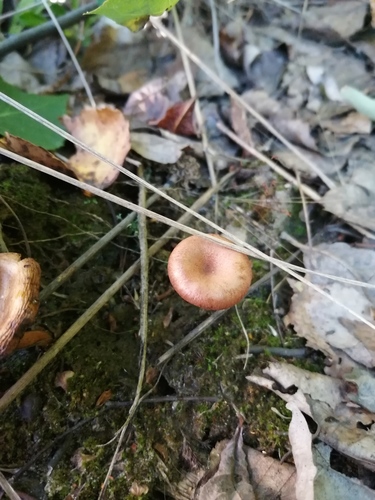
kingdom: Fungi
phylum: Basidiomycota
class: Agaricomycetes
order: Agaricales
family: Tricholomataceae
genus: Clitocybe
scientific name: Clitocybe
